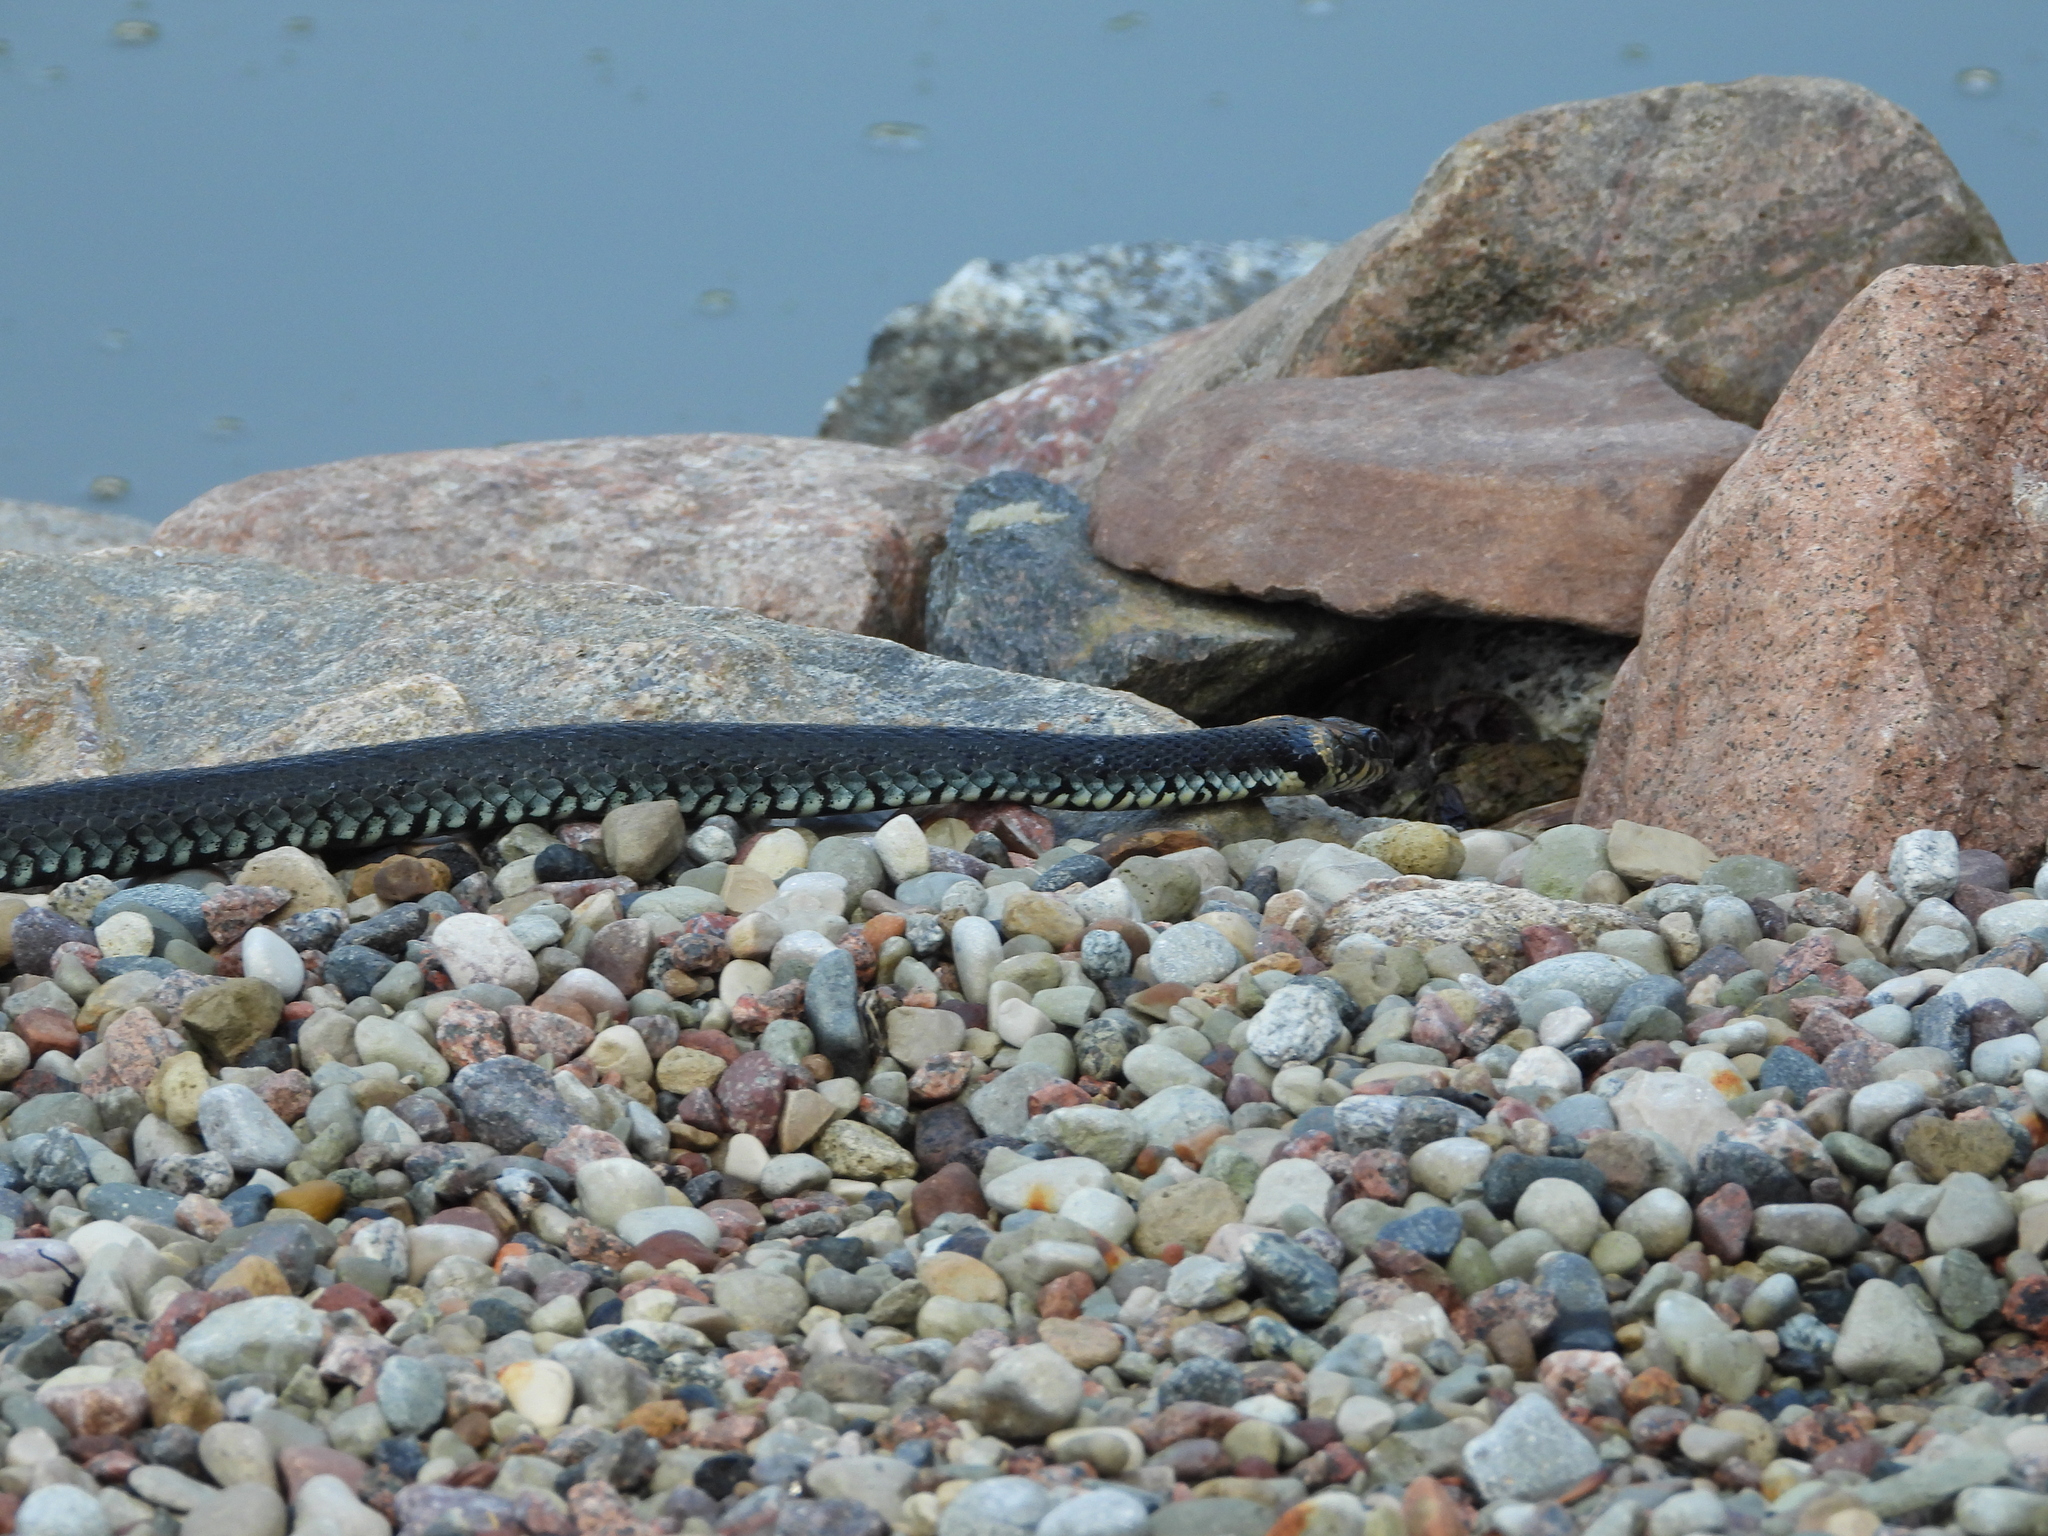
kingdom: Animalia
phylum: Chordata
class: Squamata
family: Colubridae
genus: Natrix
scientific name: Natrix natrix
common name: Grass snake
